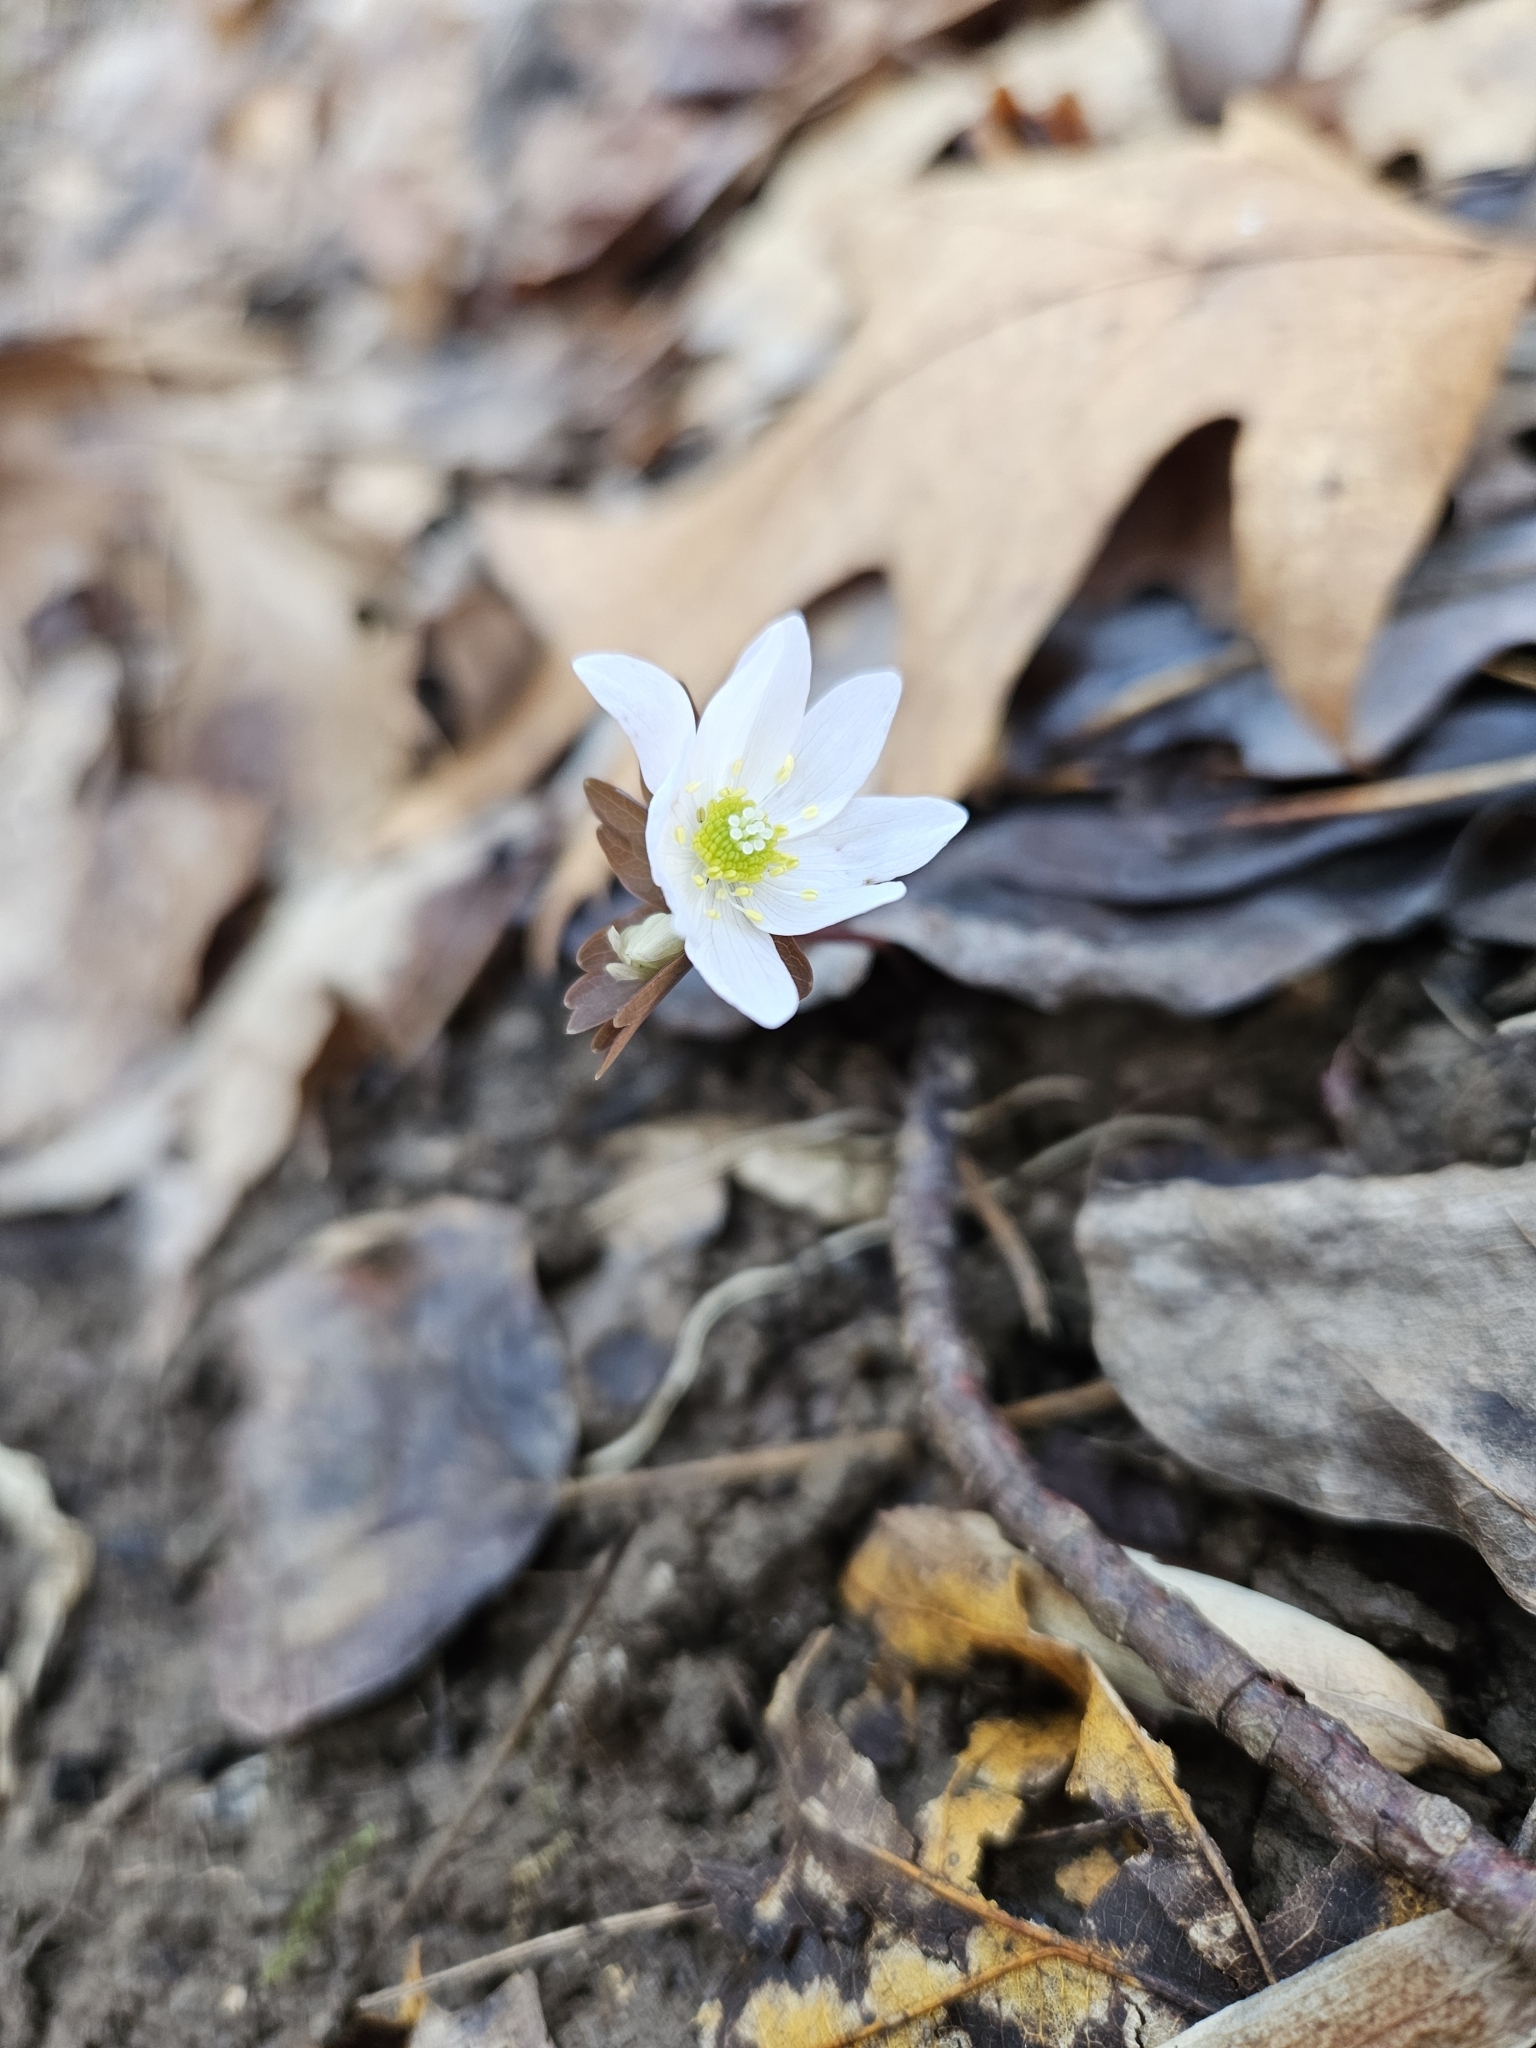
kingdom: Plantae
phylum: Tracheophyta
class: Magnoliopsida
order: Ranunculales
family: Ranunculaceae
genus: Thalictrum
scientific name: Thalictrum thalictroides
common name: Rue-anemone
